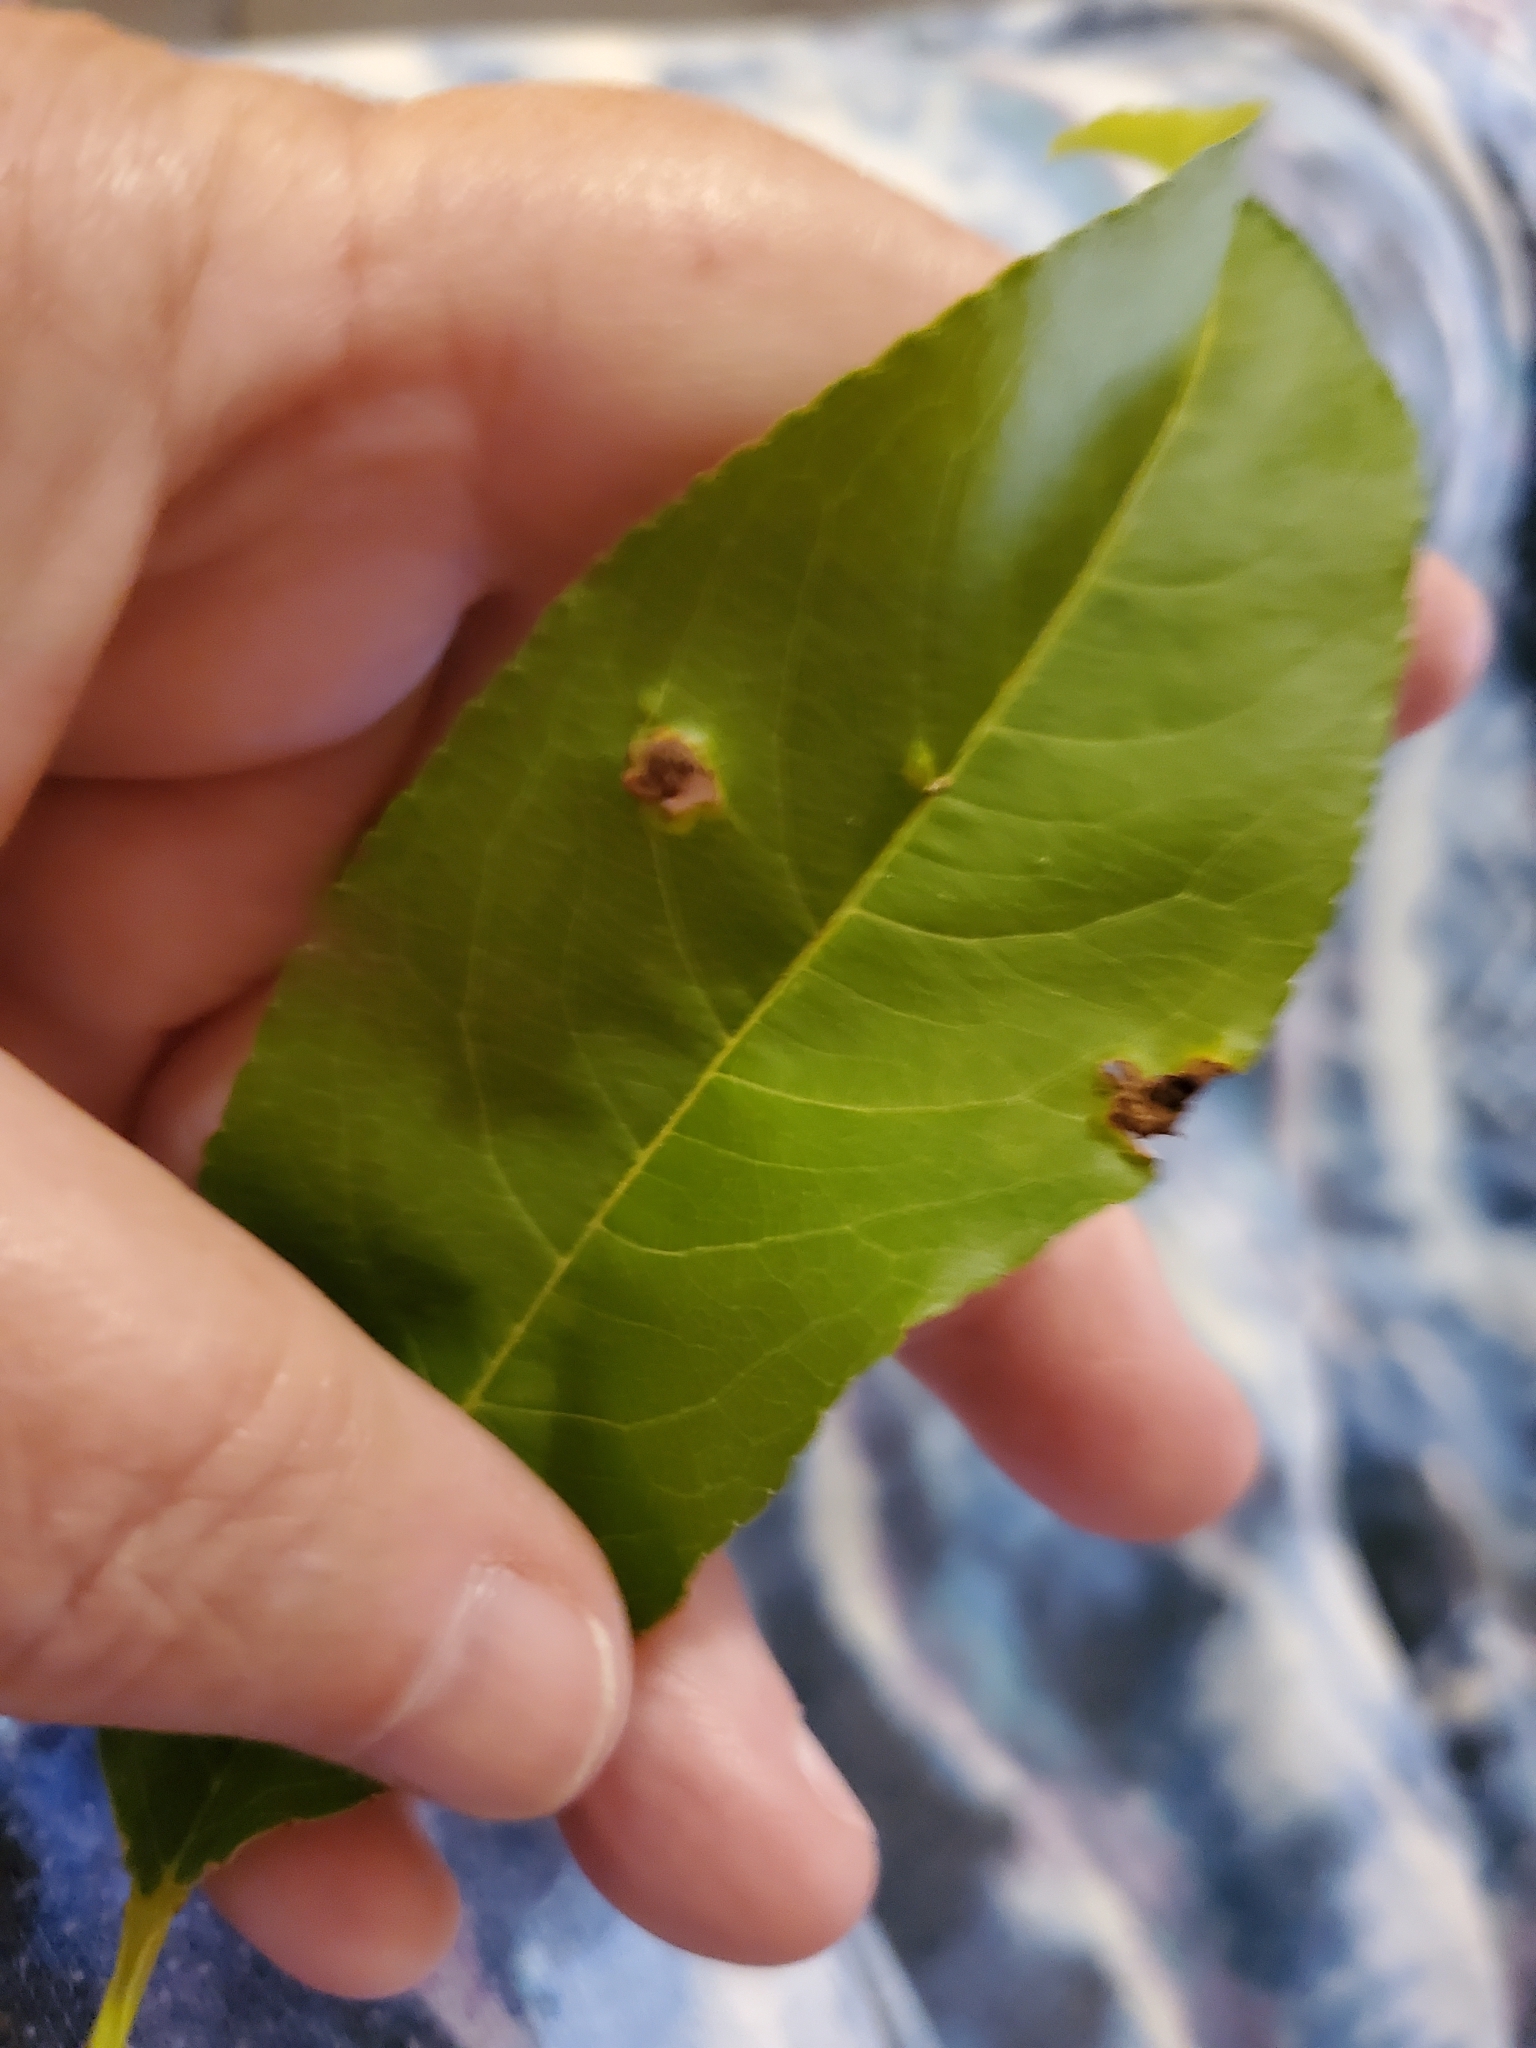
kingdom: Fungi
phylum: Ascomycota
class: Taphrinomycetes
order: Taphrinales
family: Taphrinaceae
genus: Taphrina
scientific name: Taphrina deformans
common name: Peach leaf curl
